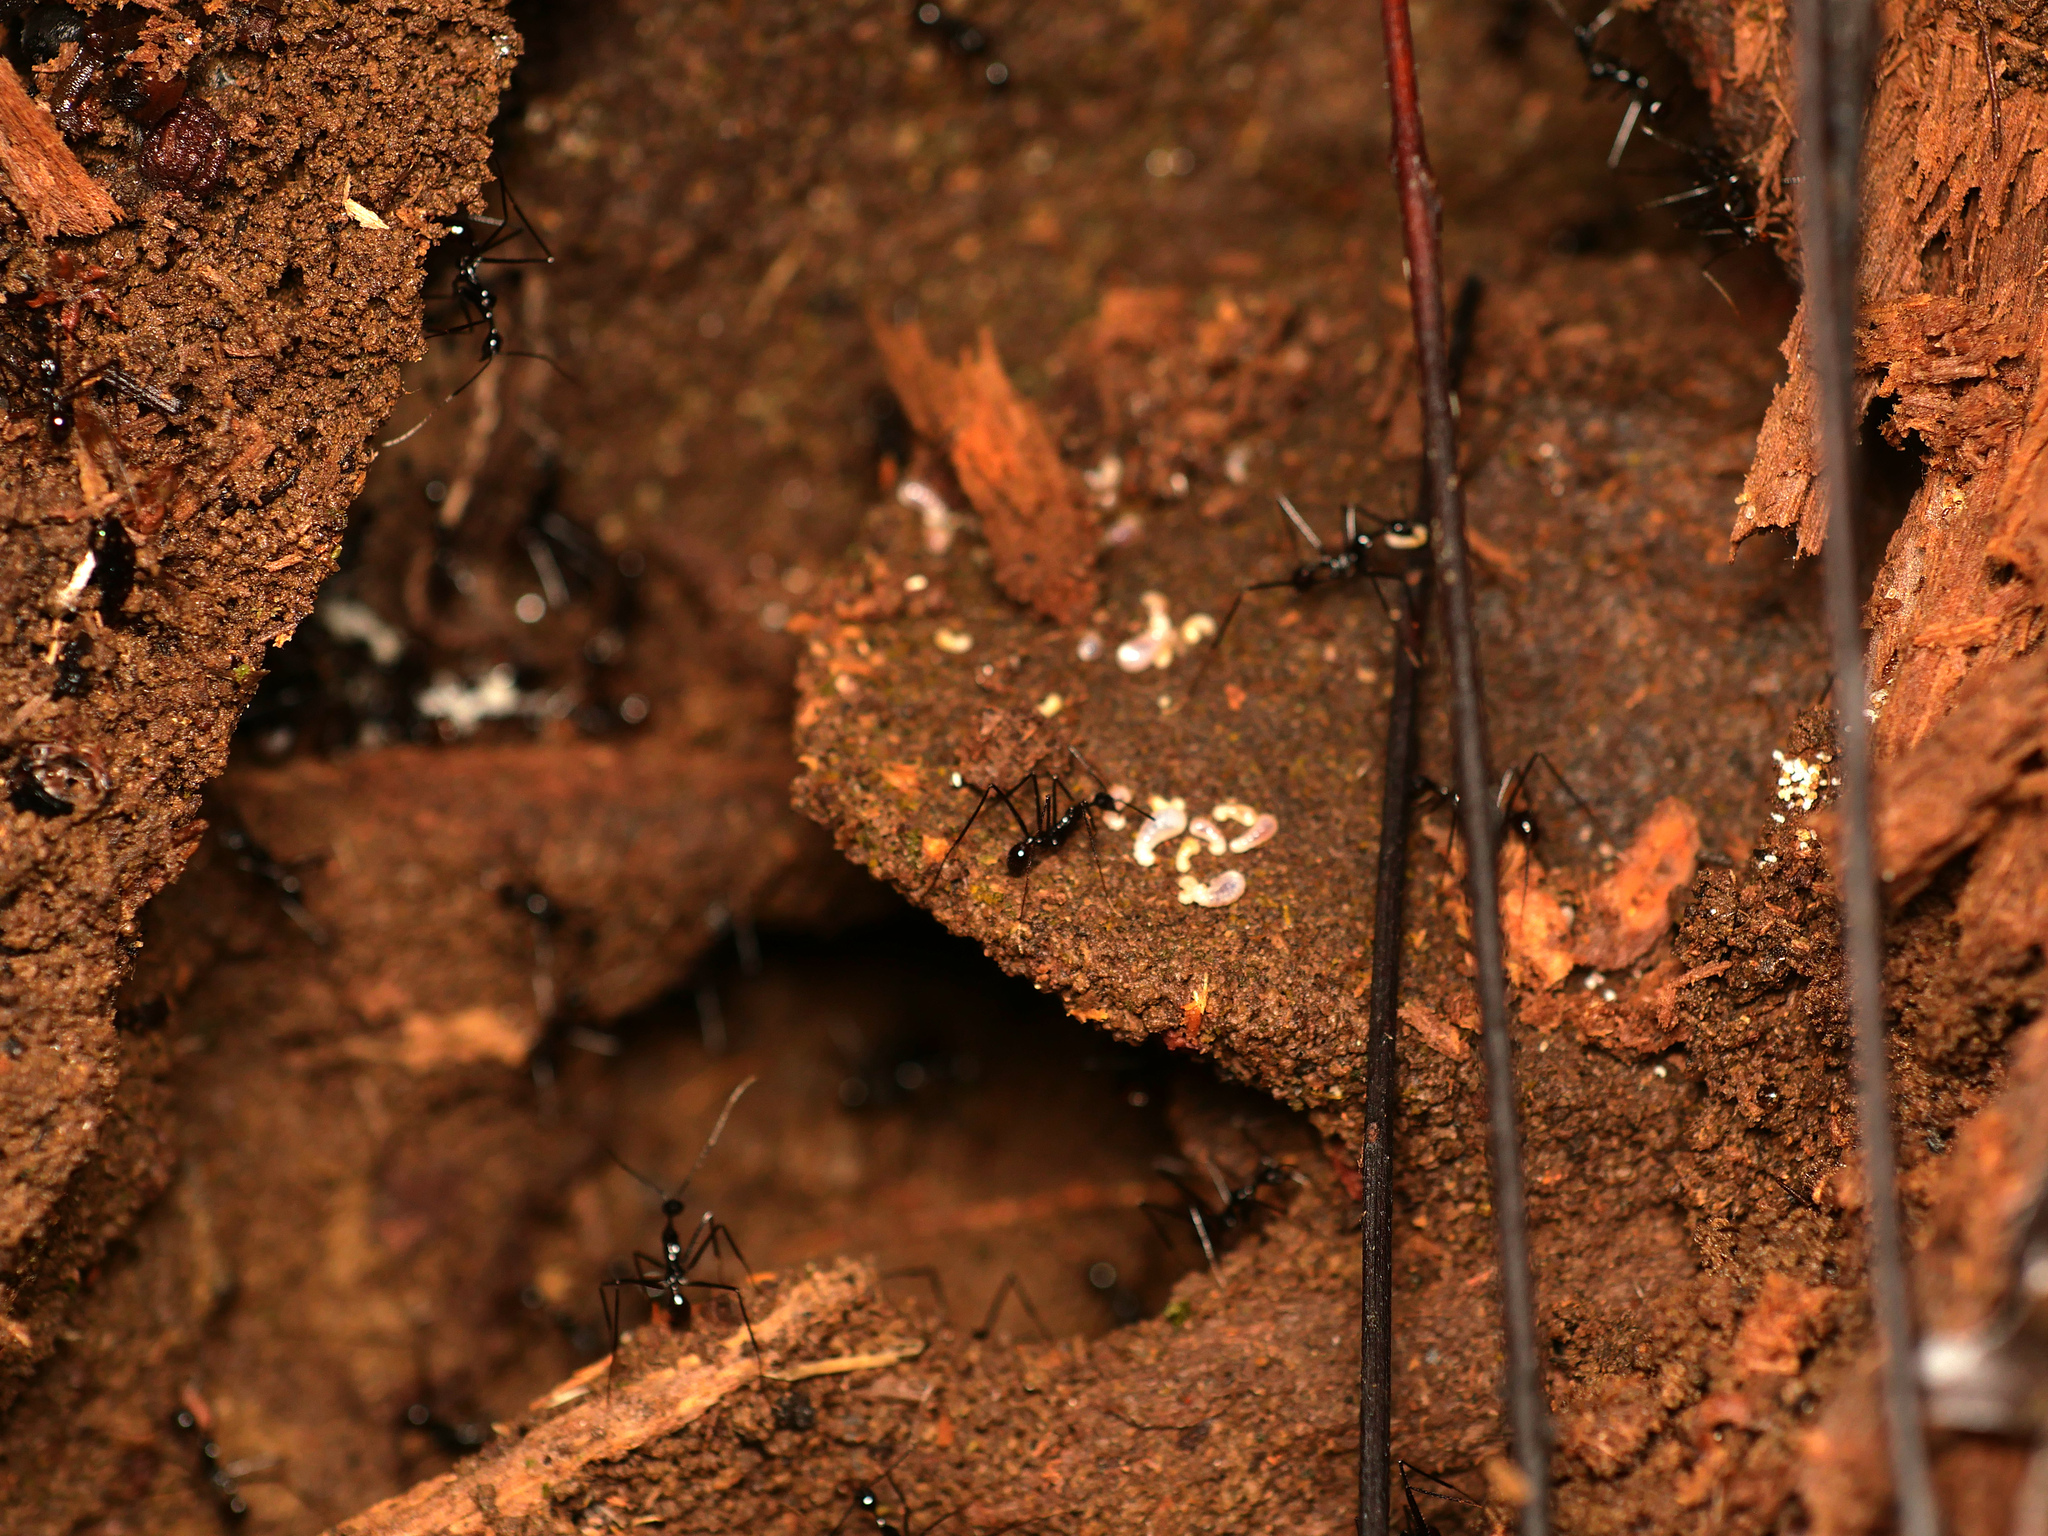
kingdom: Animalia
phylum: Arthropoda
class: Insecta
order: Hymenoptera
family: Formicidae
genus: Aphaenogaster
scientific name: Aphaenogaster dromedaria
